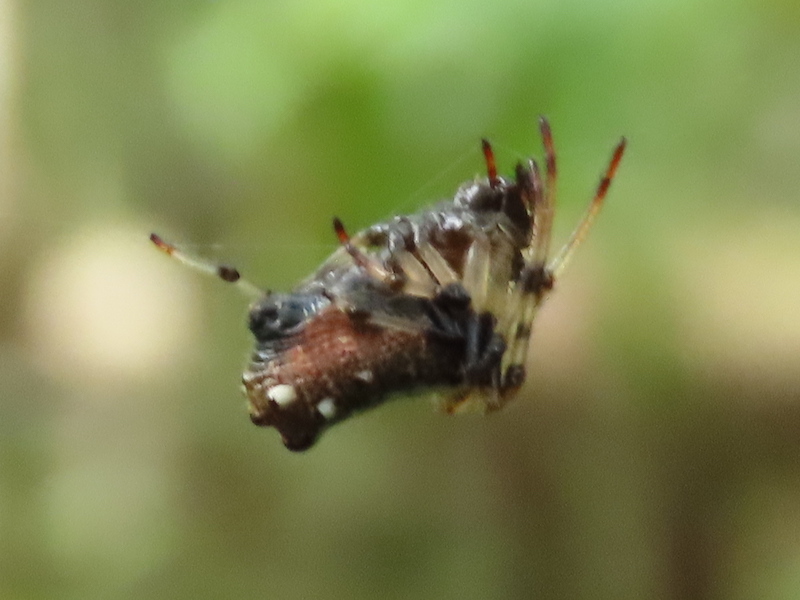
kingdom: Animalia
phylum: Arthropoda
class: Arachnida
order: Araneae
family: Araneidae
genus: Verrucosa
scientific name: Verrucosa arenata
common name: Orb weavers
